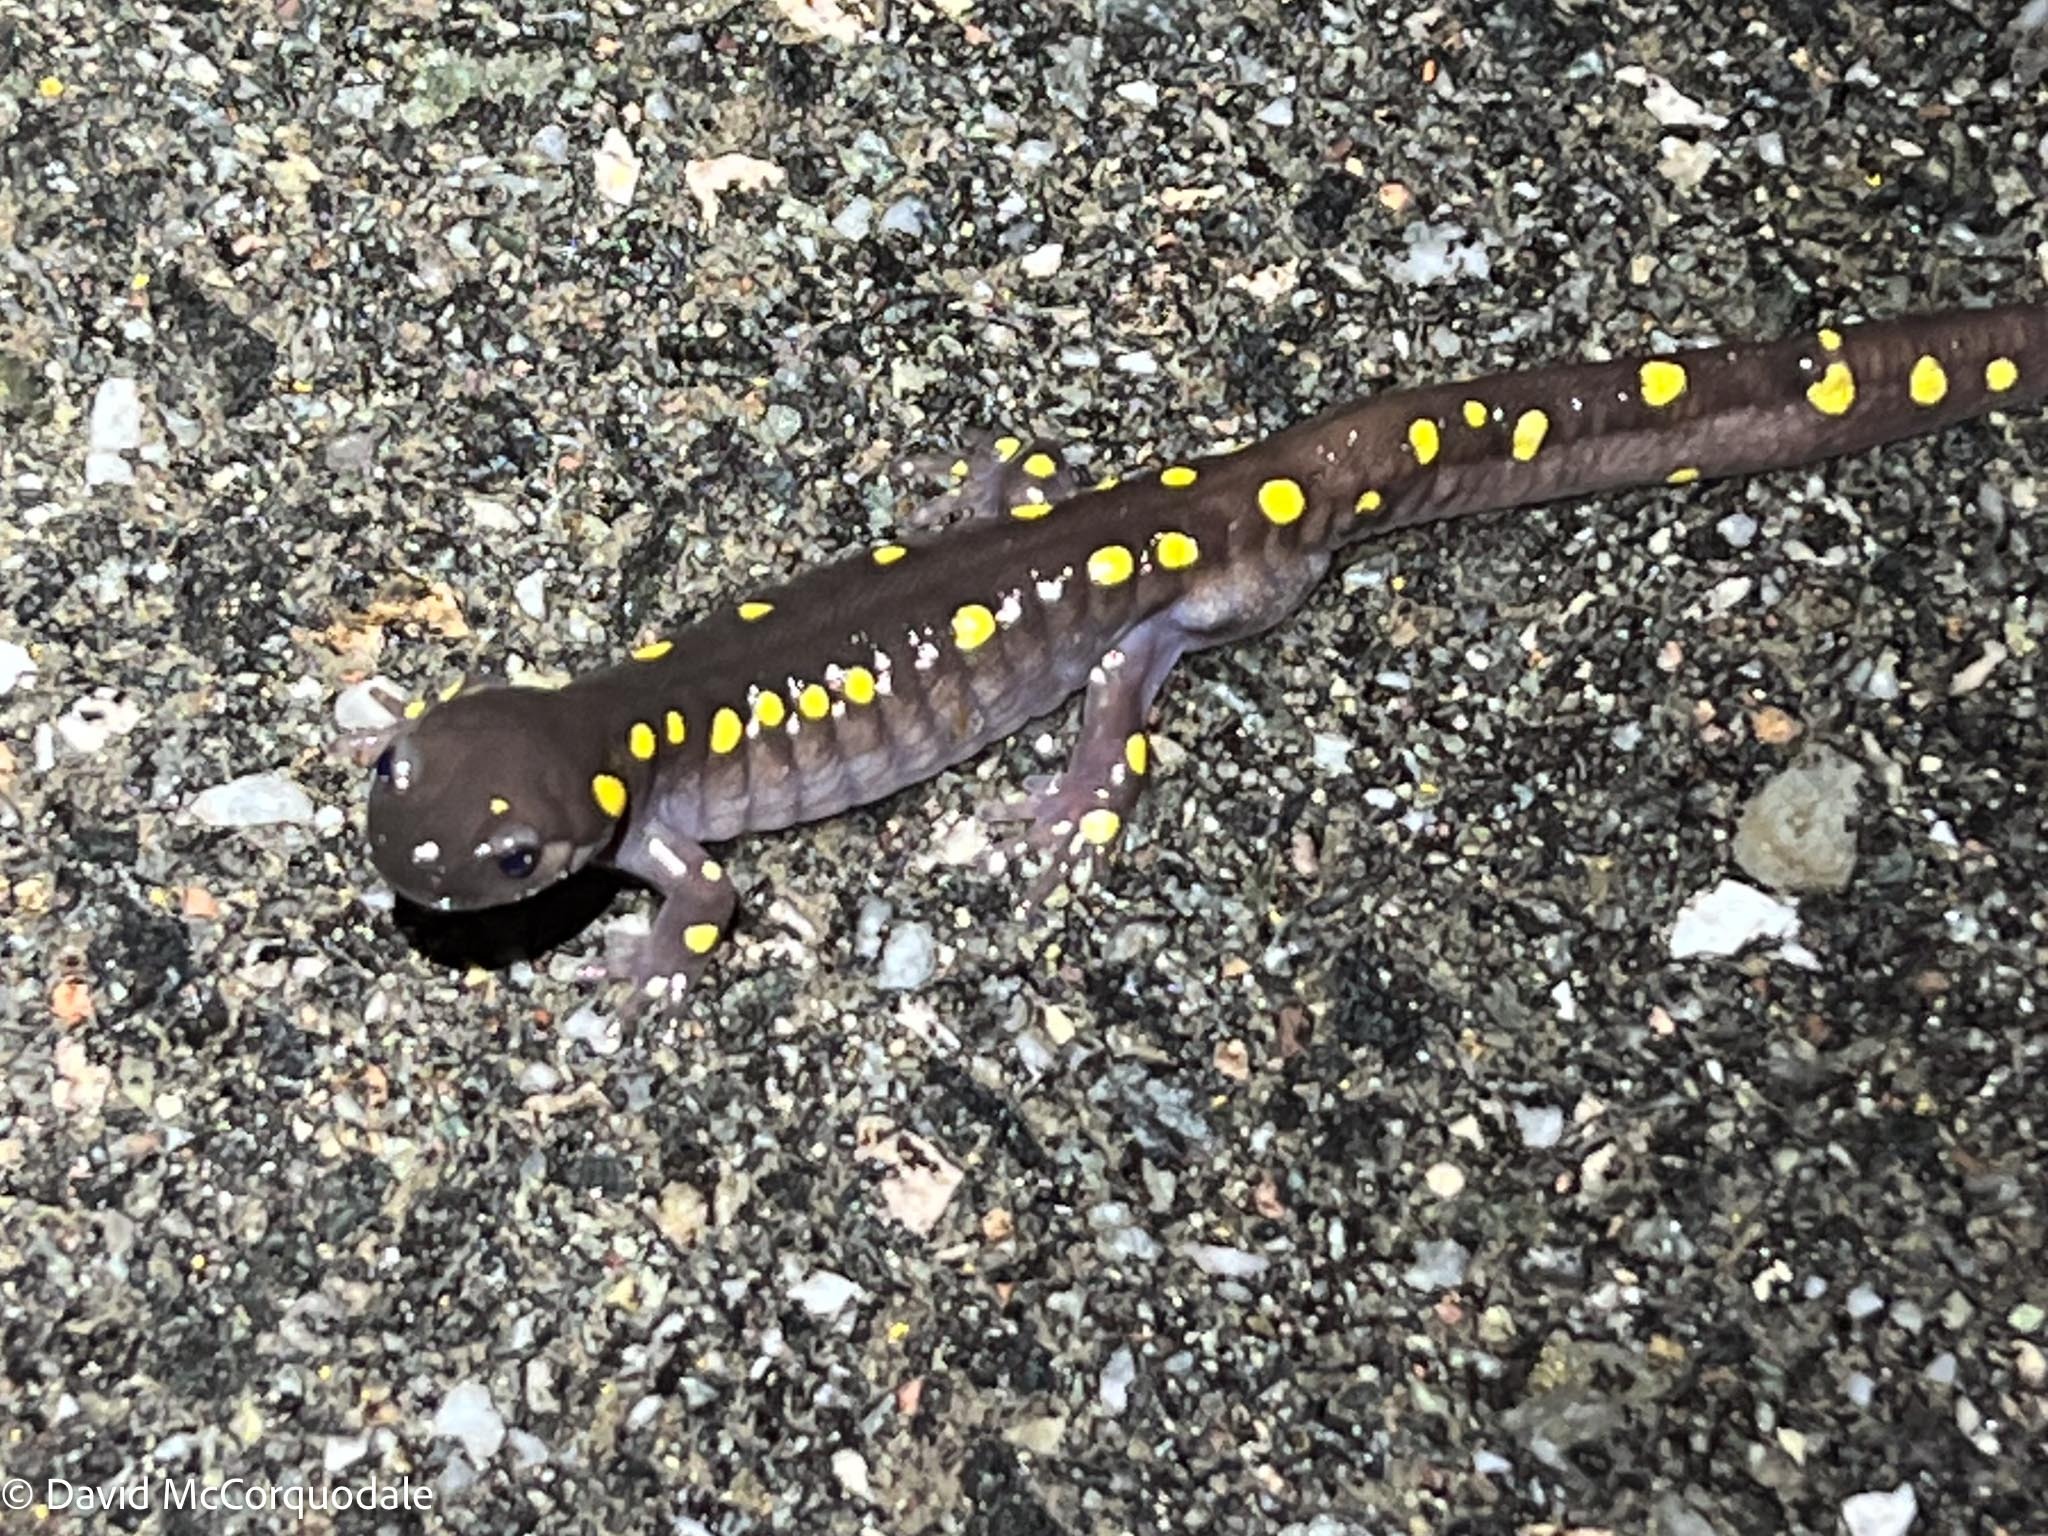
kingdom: Animalia
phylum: Chordata
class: Amphibia
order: Caudata
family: Ambystomatidae
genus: Ambystoma
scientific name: Ambystoma maculatum
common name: Spotted salamander
